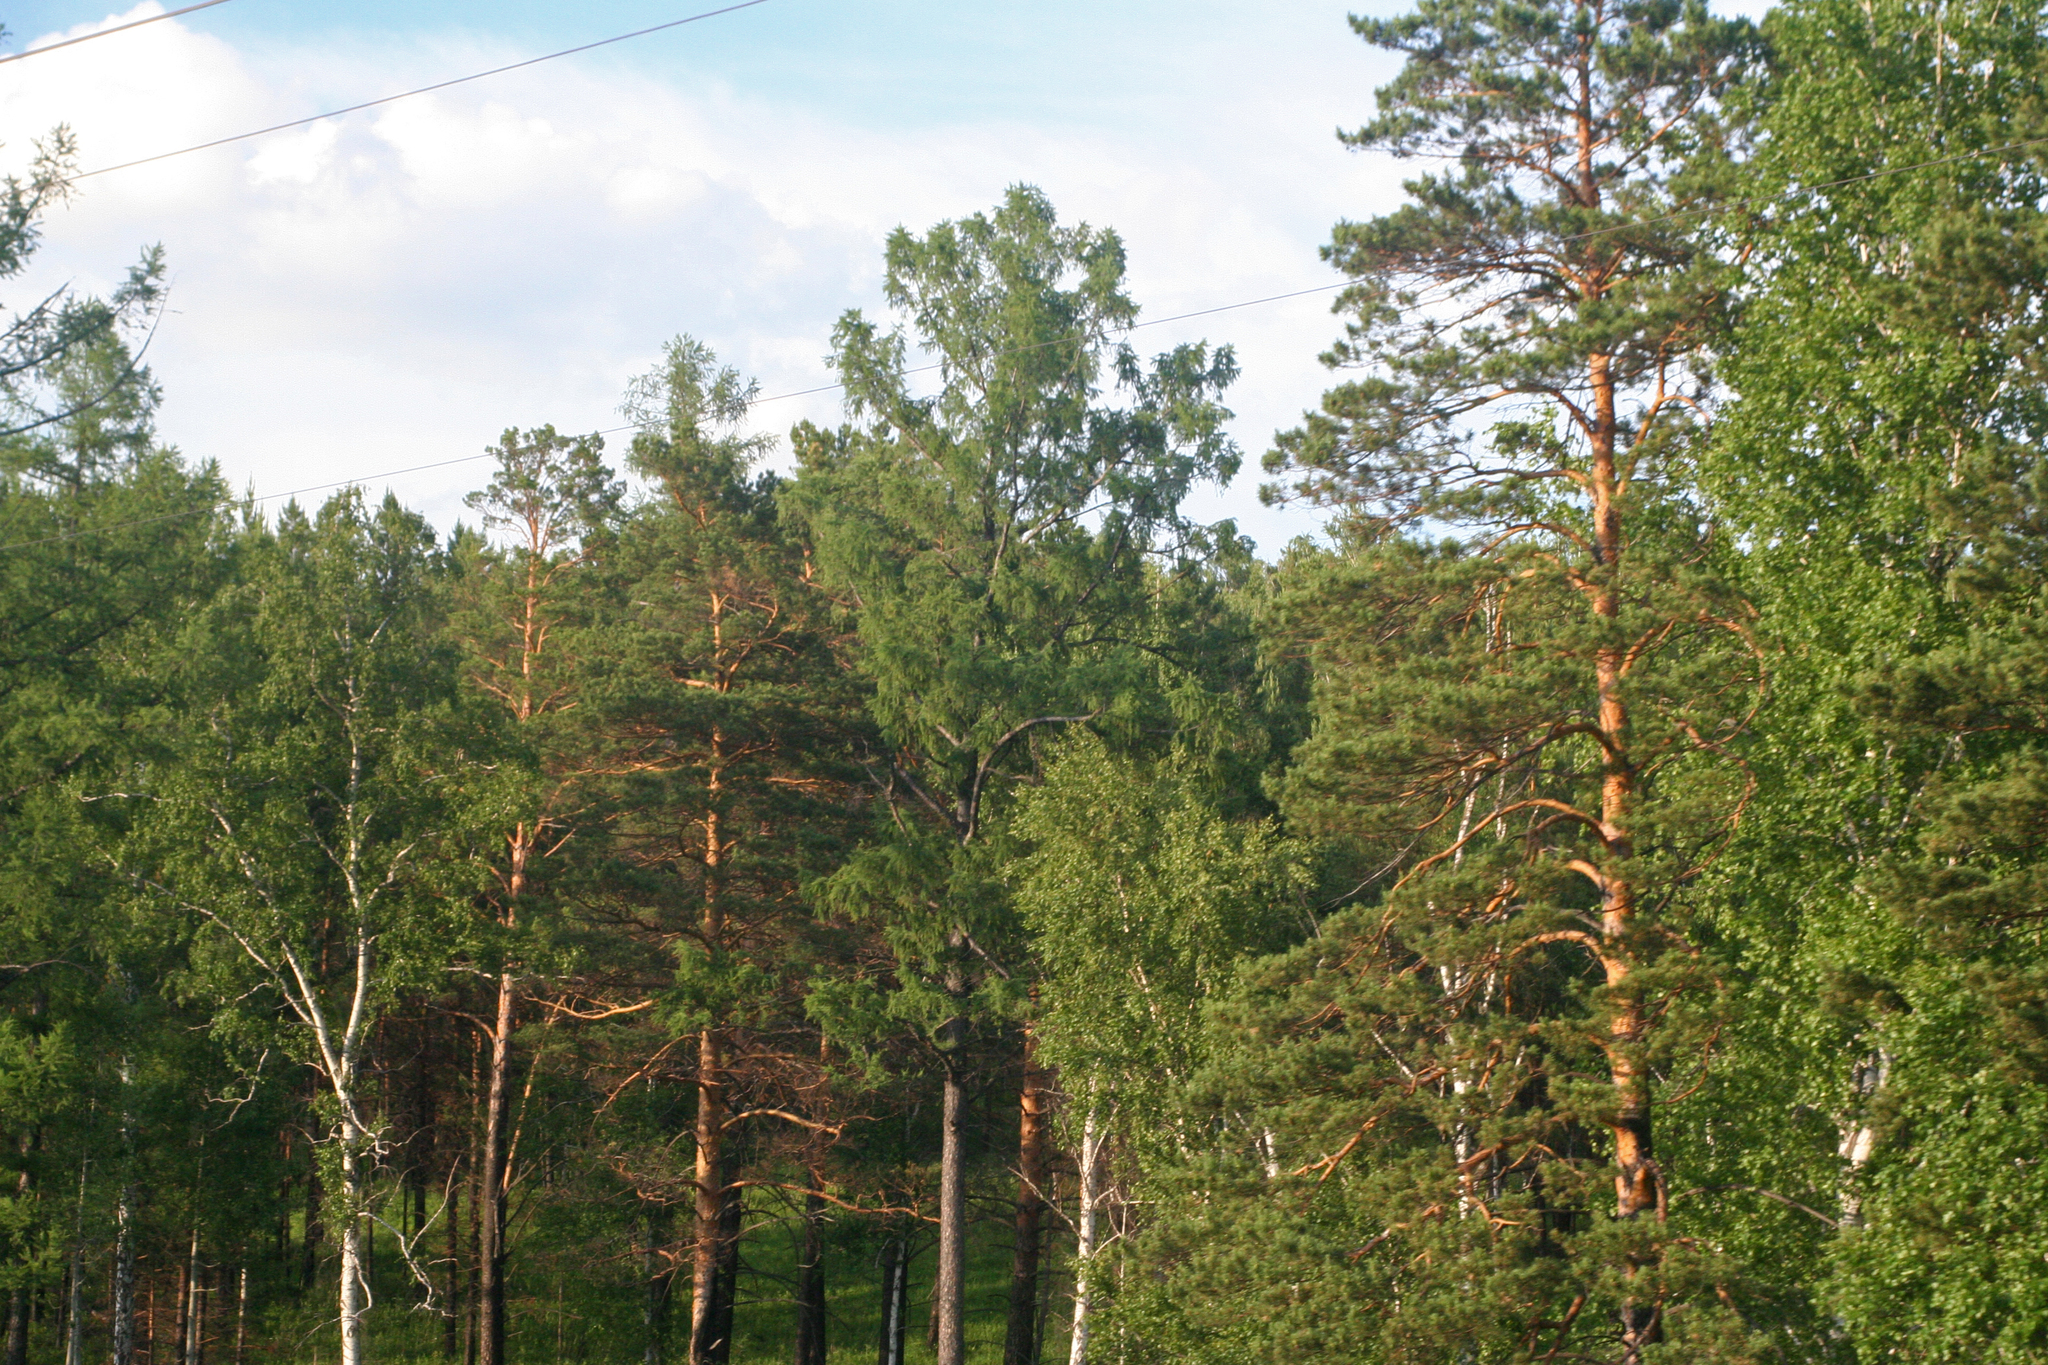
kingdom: Plantae
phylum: Tracheophyta
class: Pinopsida
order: Pinales
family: Pinaceae
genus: Pinus
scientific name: Pinus sylvestris
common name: Scots pine
